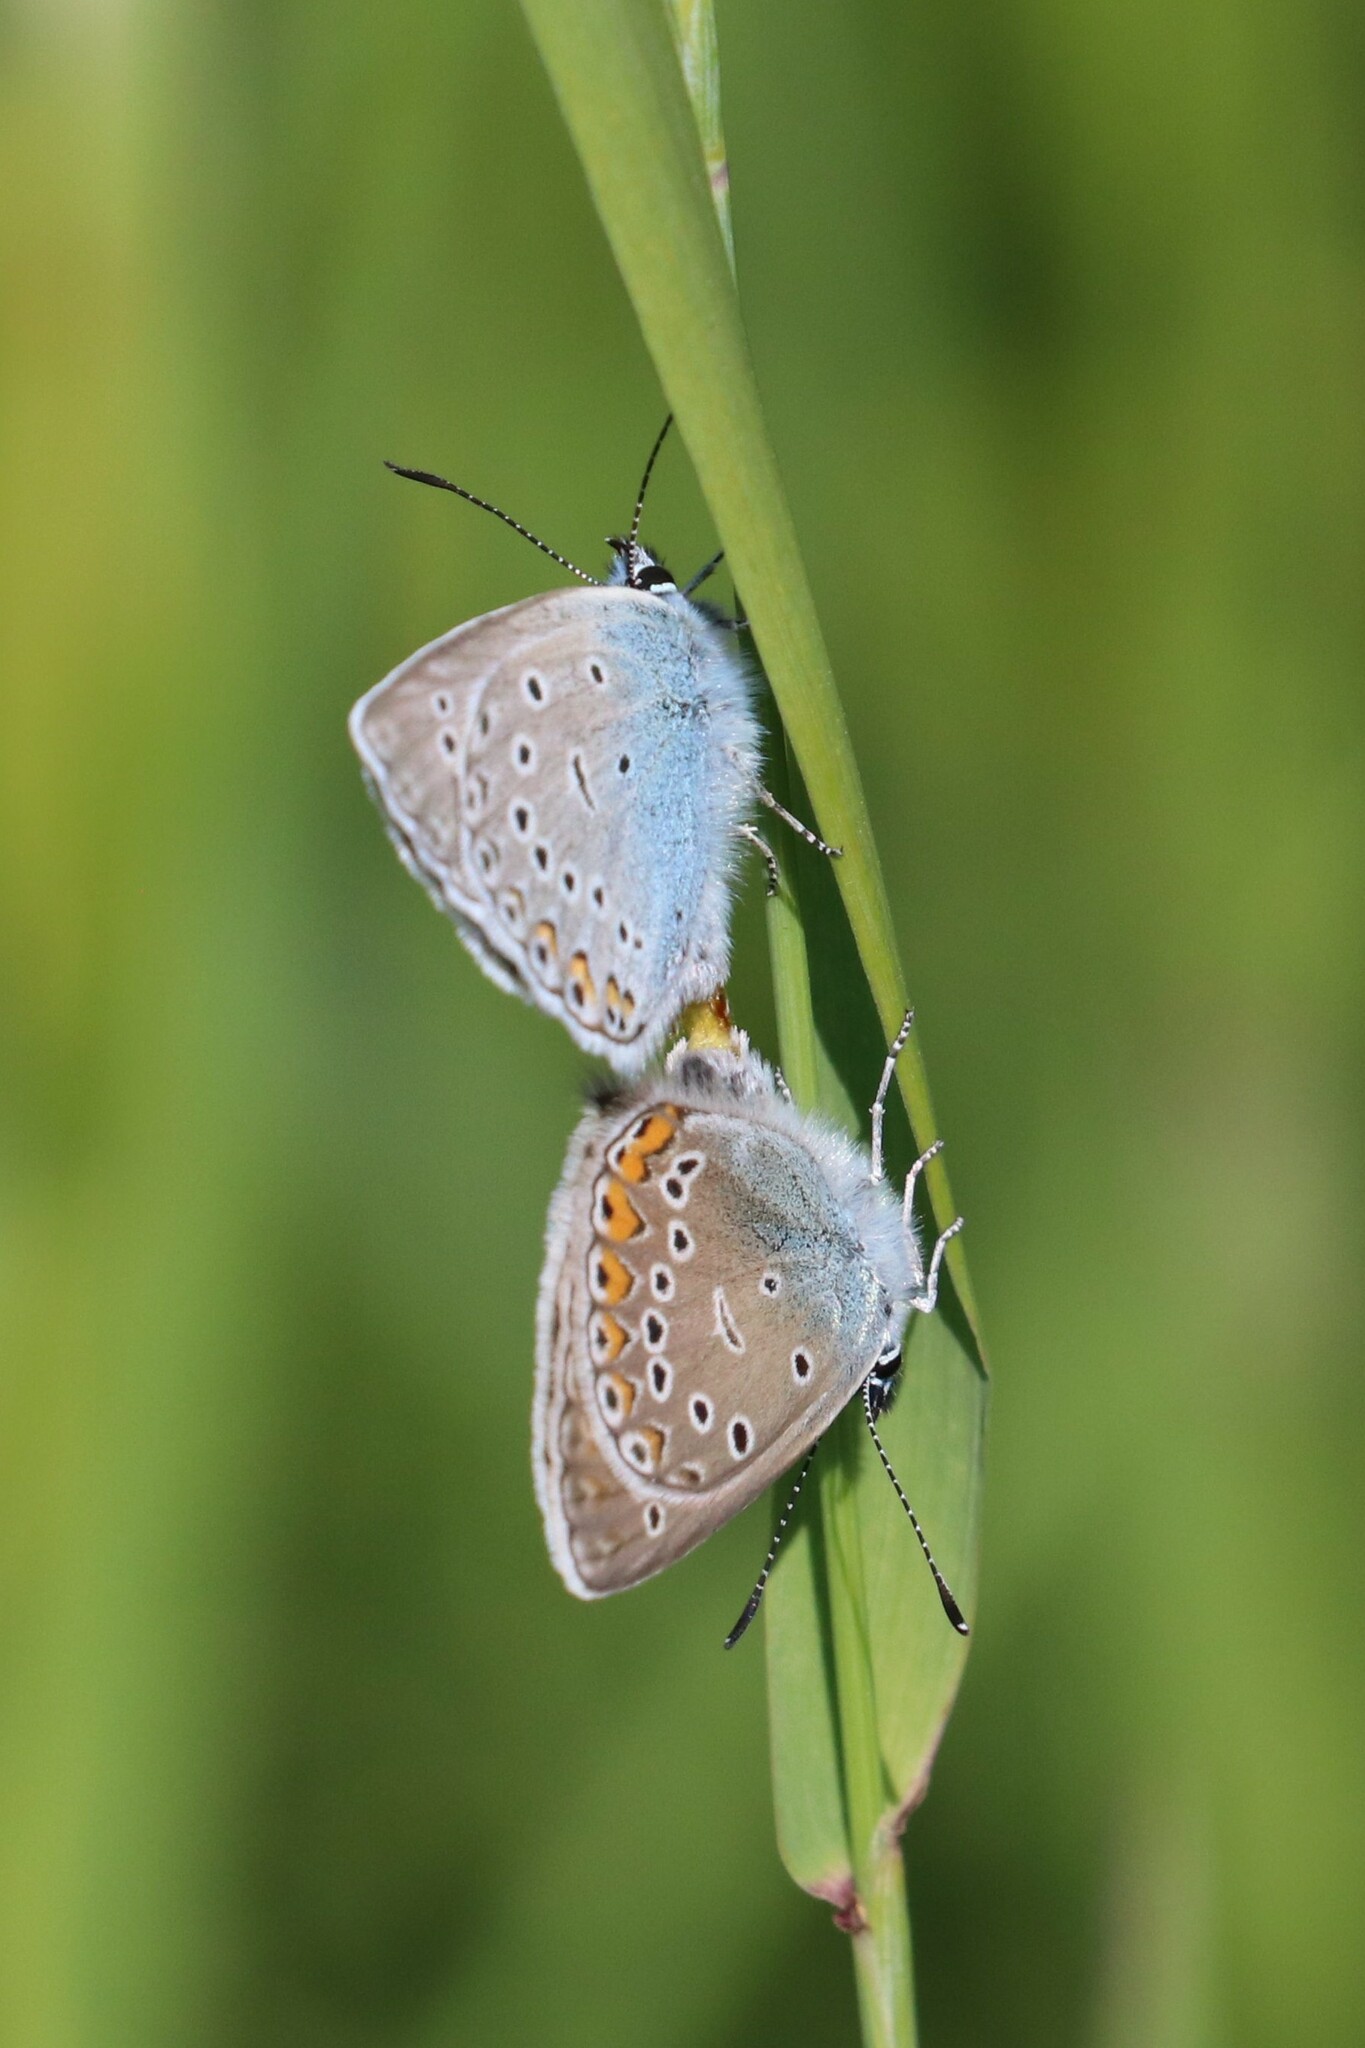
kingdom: Animalia
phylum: Arthropoda
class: Insecta
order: Lepidoptera
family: Lycaenidae
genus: Plebejus
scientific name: Plebejus amanda
